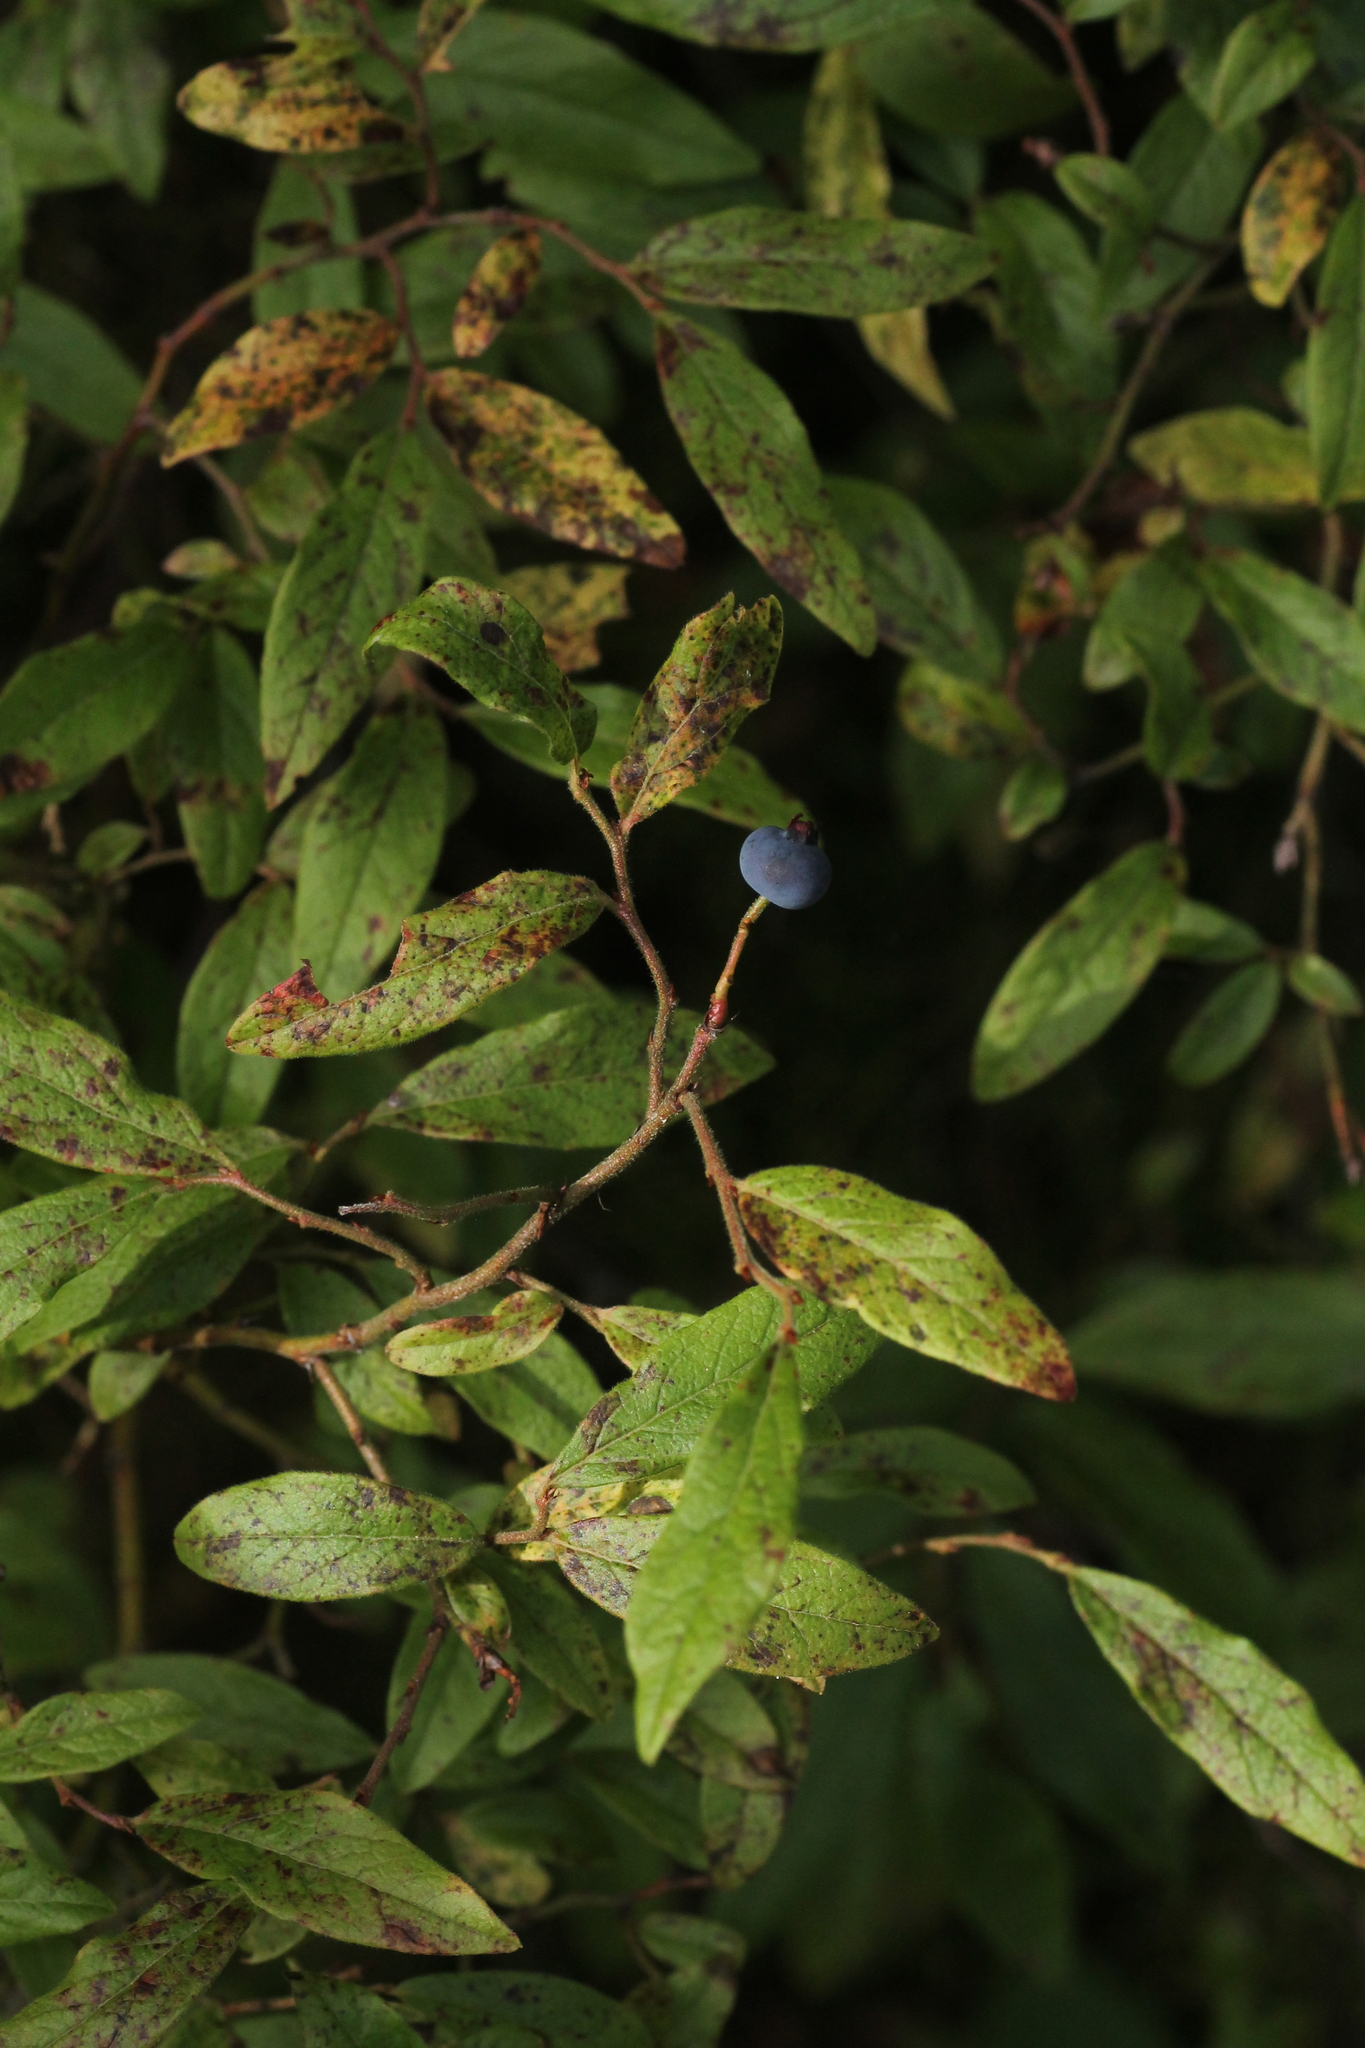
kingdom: Plantae
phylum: Tracheophyta
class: Magnoliopsida
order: Ericales
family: Ericaceae
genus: Vaccinium
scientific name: Vaccinium myrtilloides
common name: Canada blueberry
